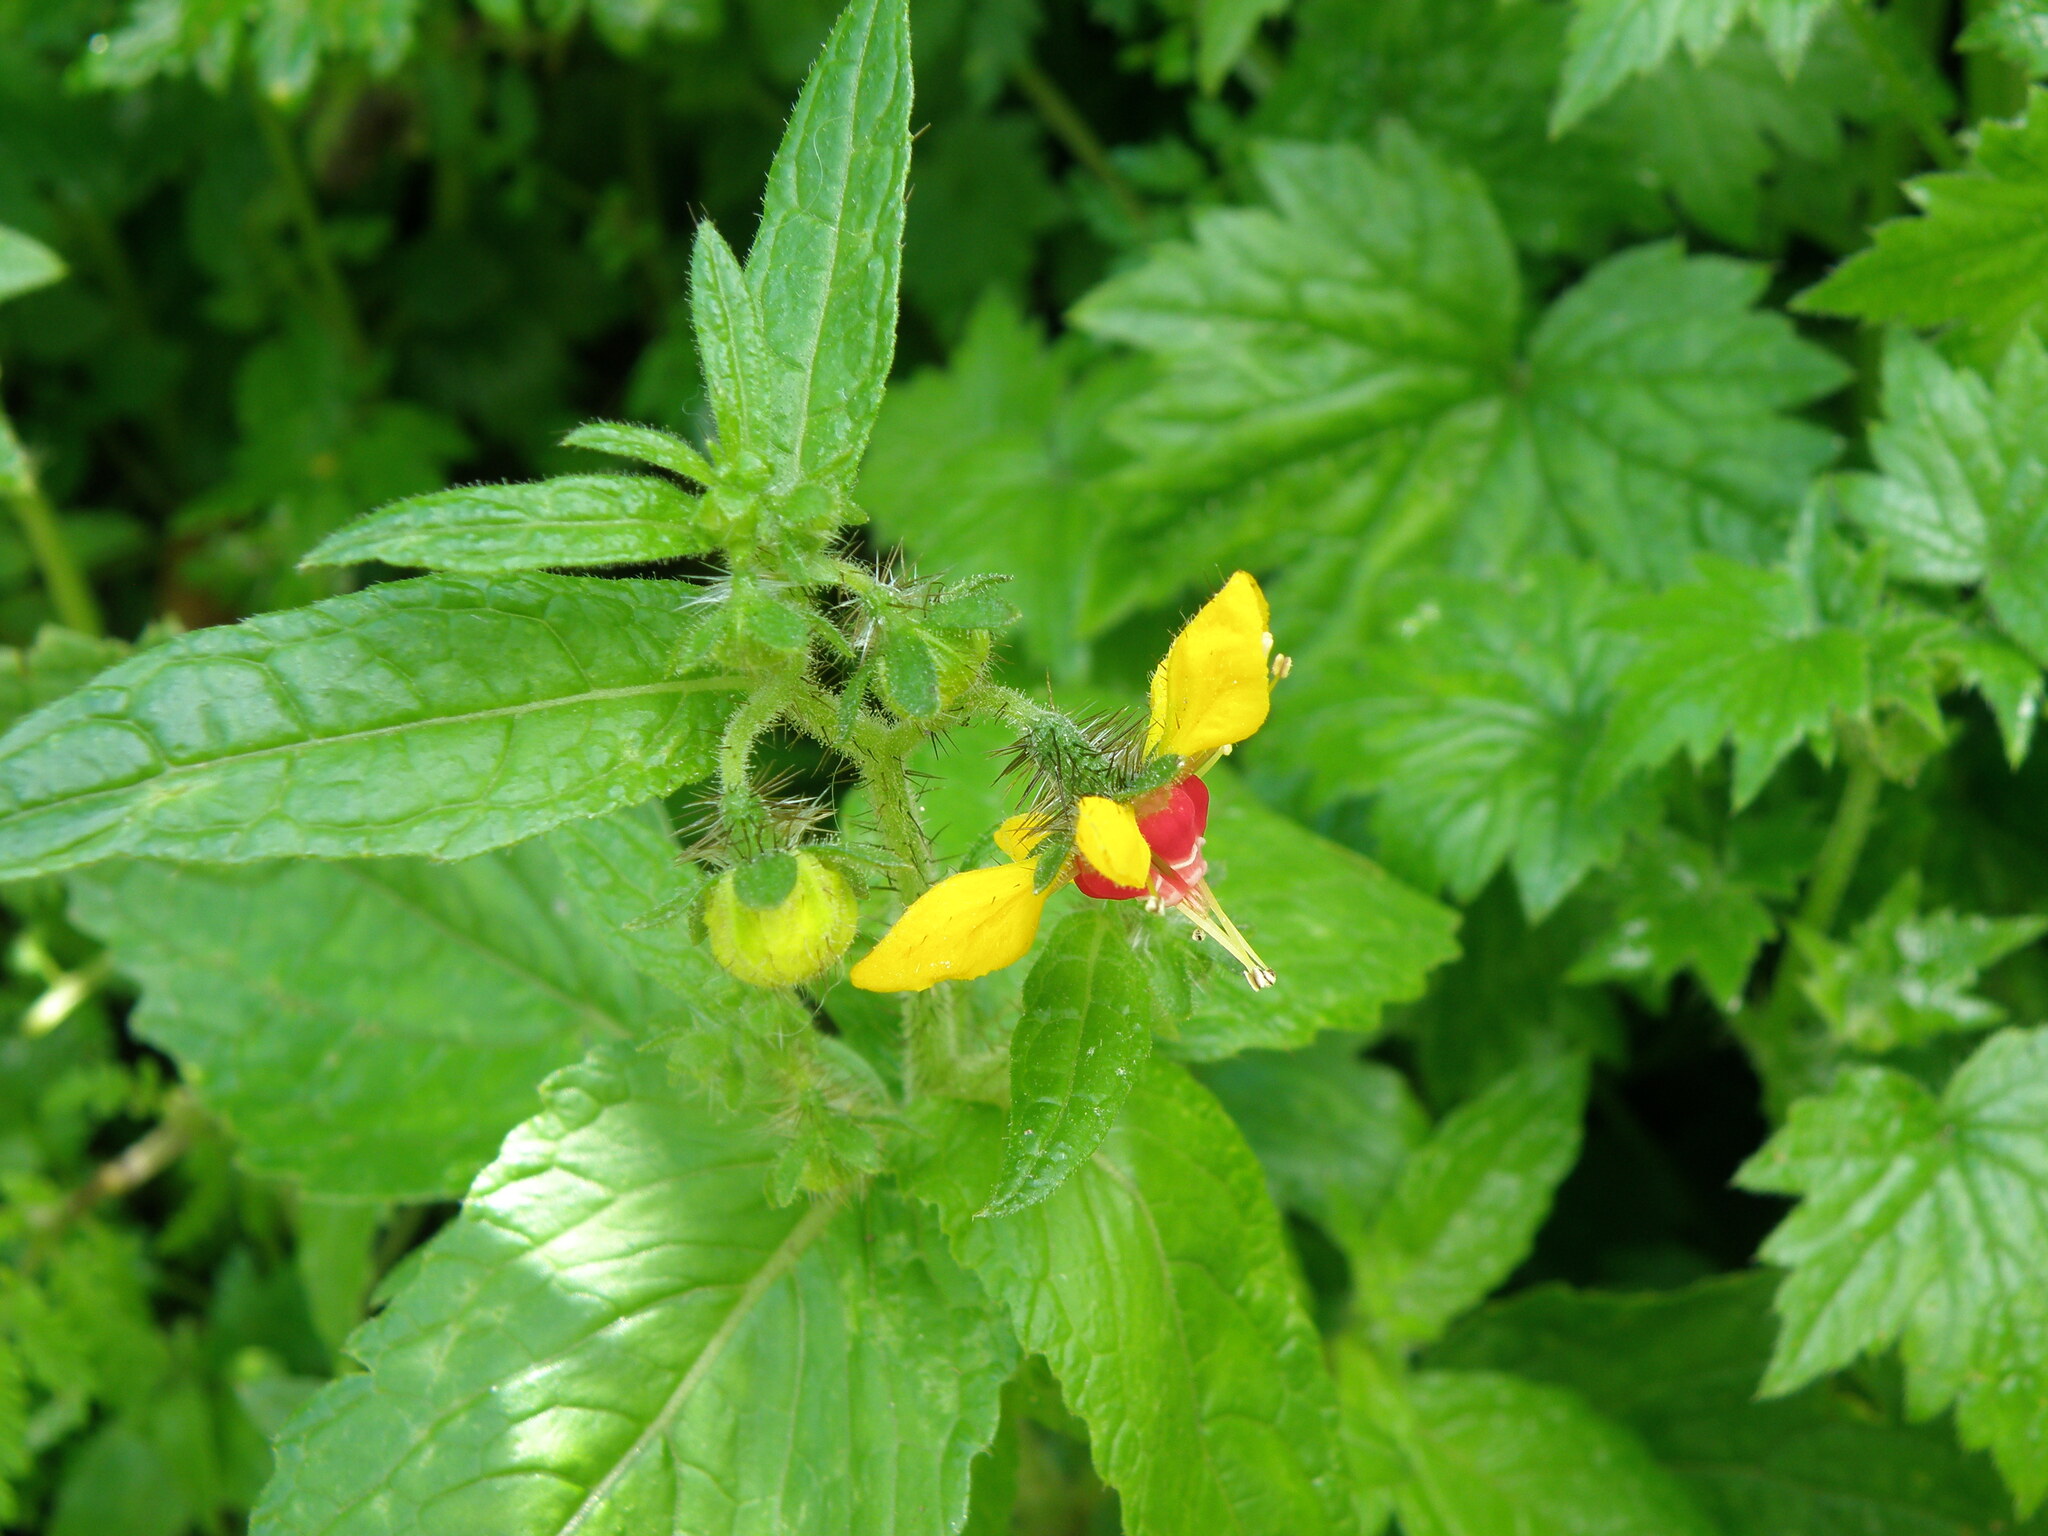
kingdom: Plantae
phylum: Tracheophyta
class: Magnoliopsida
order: Cornales
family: Loasaceae
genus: Nasa
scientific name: Nasa solaria
